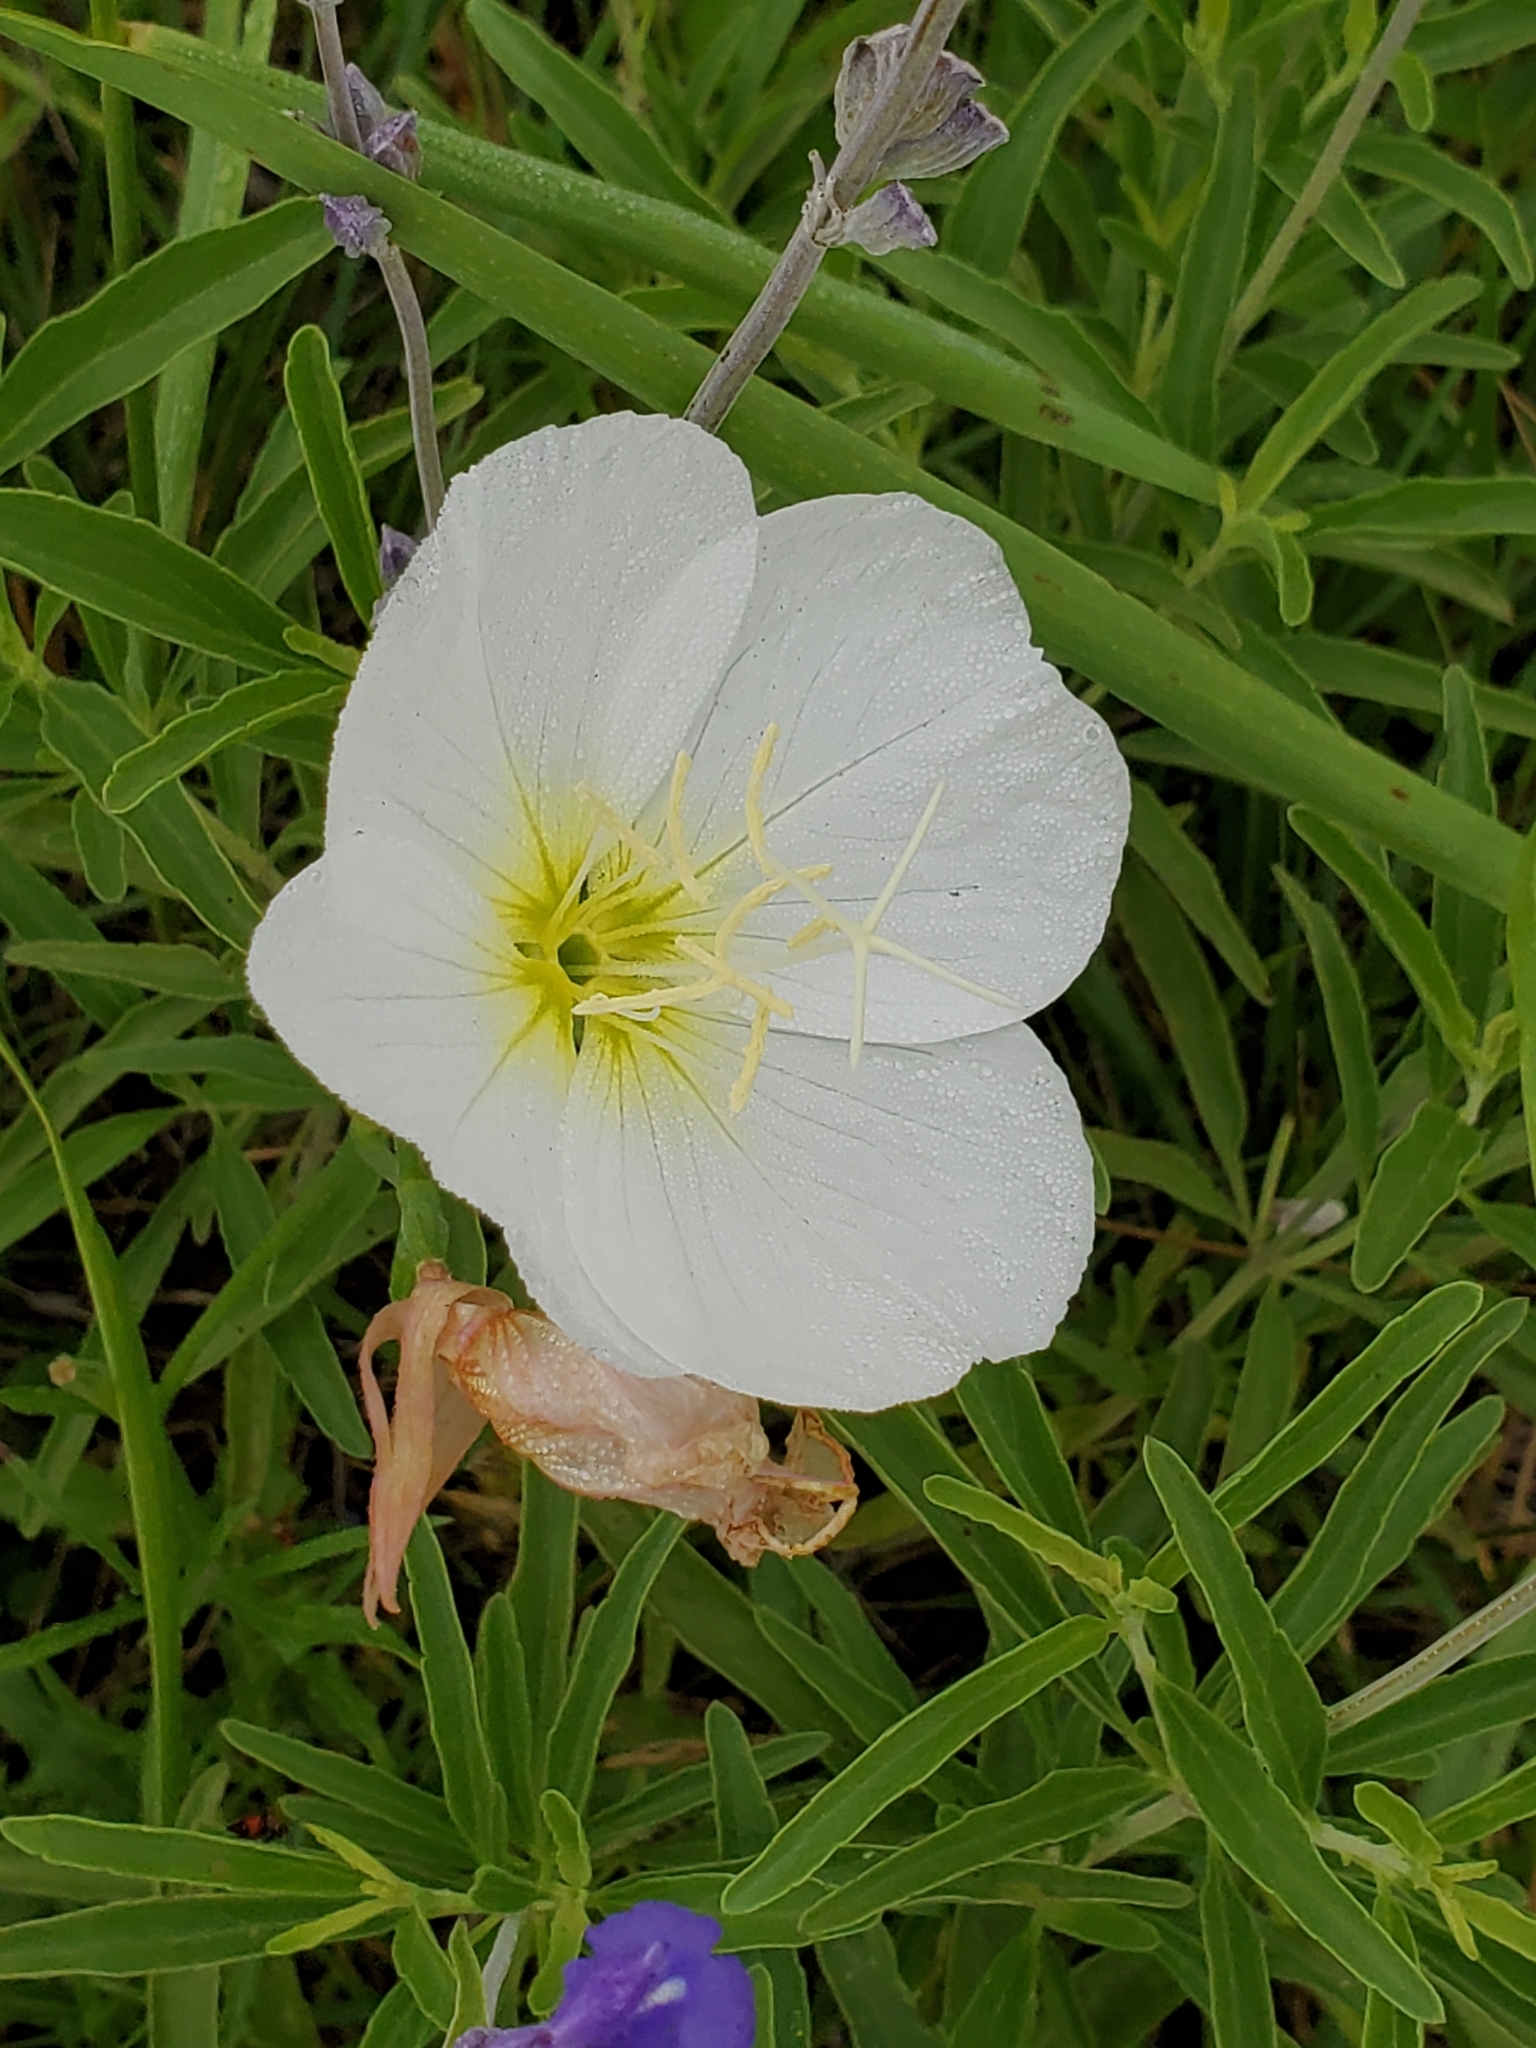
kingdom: Plantae
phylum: Tracheophyta
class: Magnoliopsida
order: Myrtales
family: Onagraceae
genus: Oenothera
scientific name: Oenothera speciosa
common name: White evening-primrose
